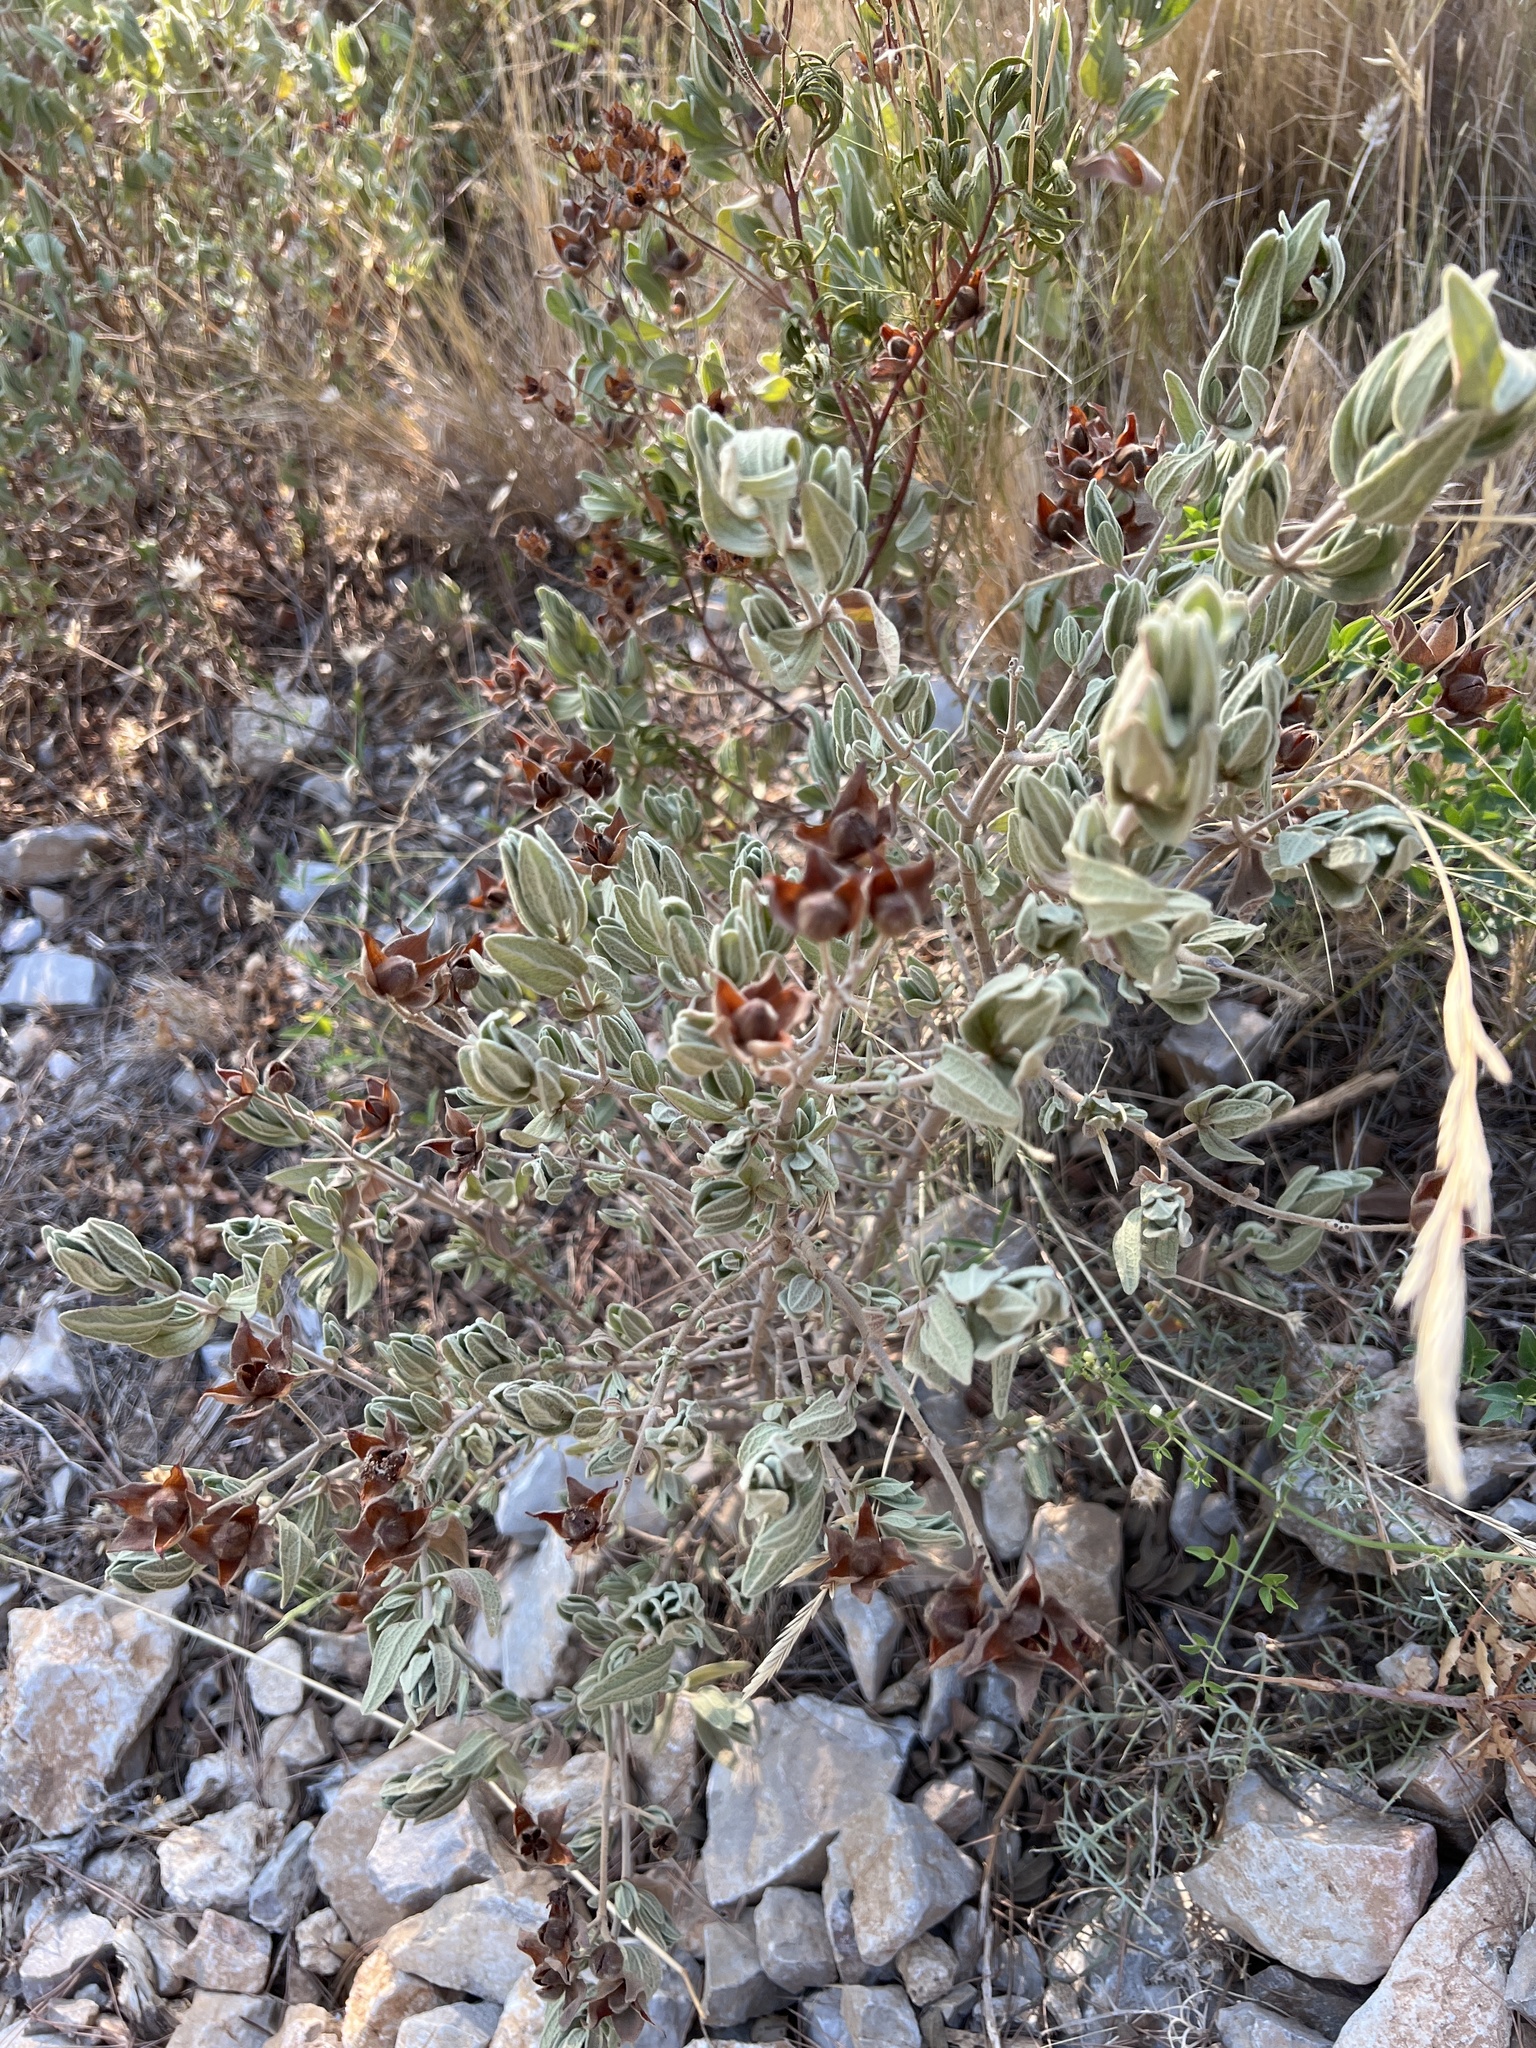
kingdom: Plantae
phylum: Tracheophyta
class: Magnoliopsida
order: Malvales
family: Cistaceae
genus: Cistus
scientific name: Cistus albidus
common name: White-leaf rock-rose
